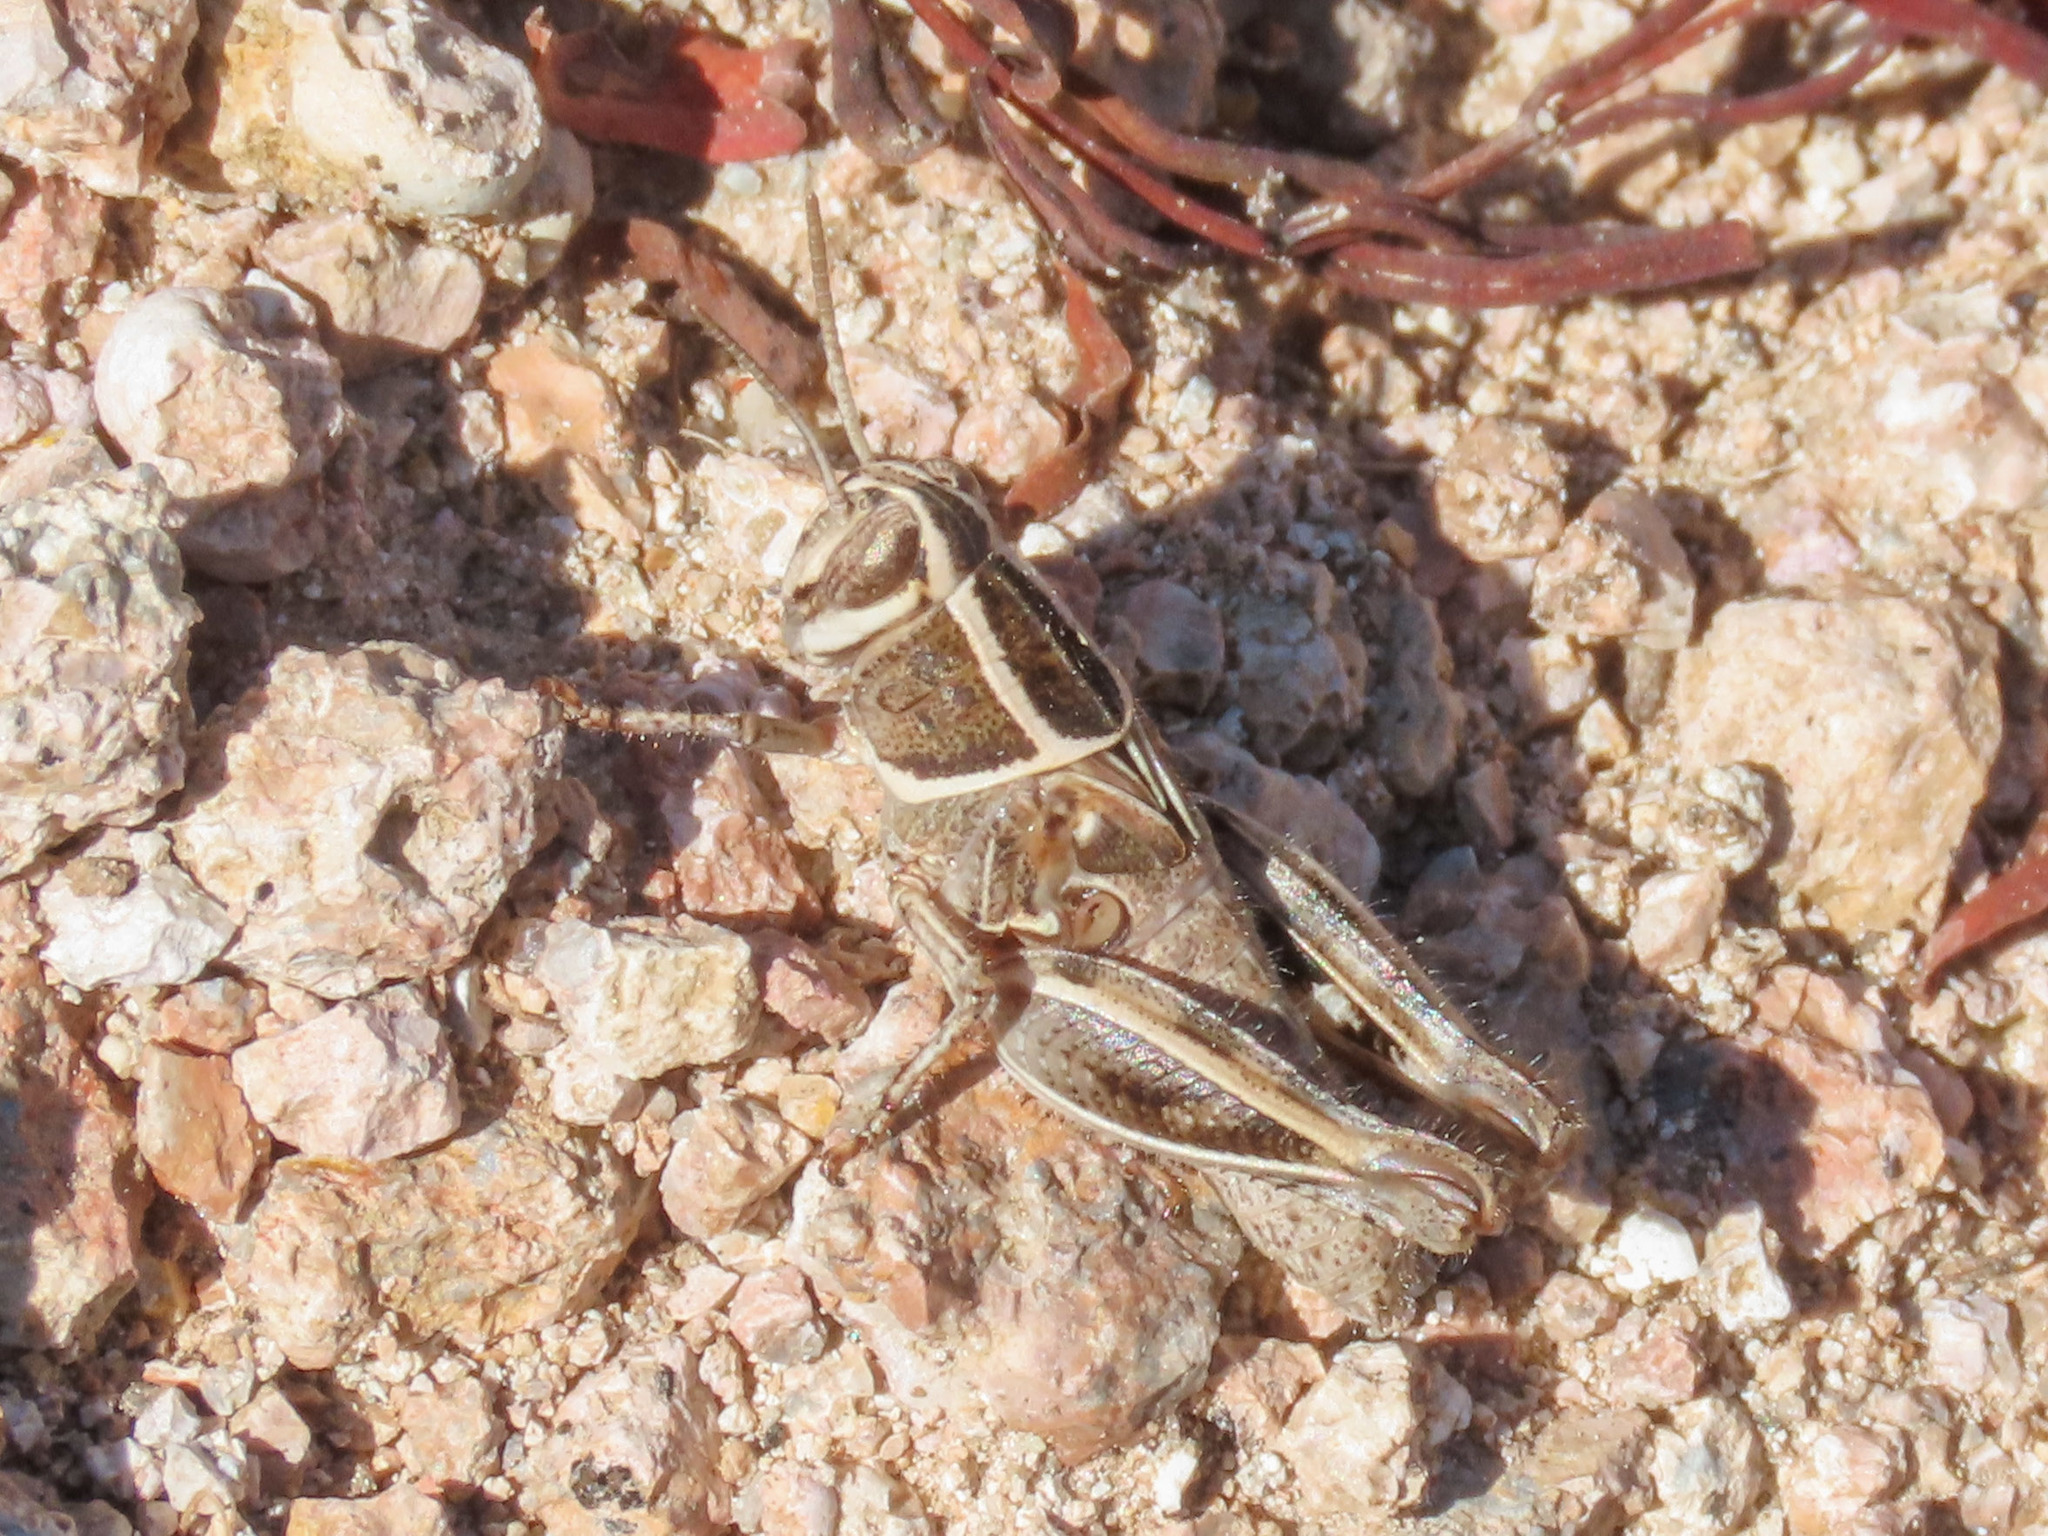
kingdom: Animalia
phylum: Arthropoda
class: Insecta
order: Orthoptera
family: Acrididae
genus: Calliptamus
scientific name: Calliptamus barbarus
